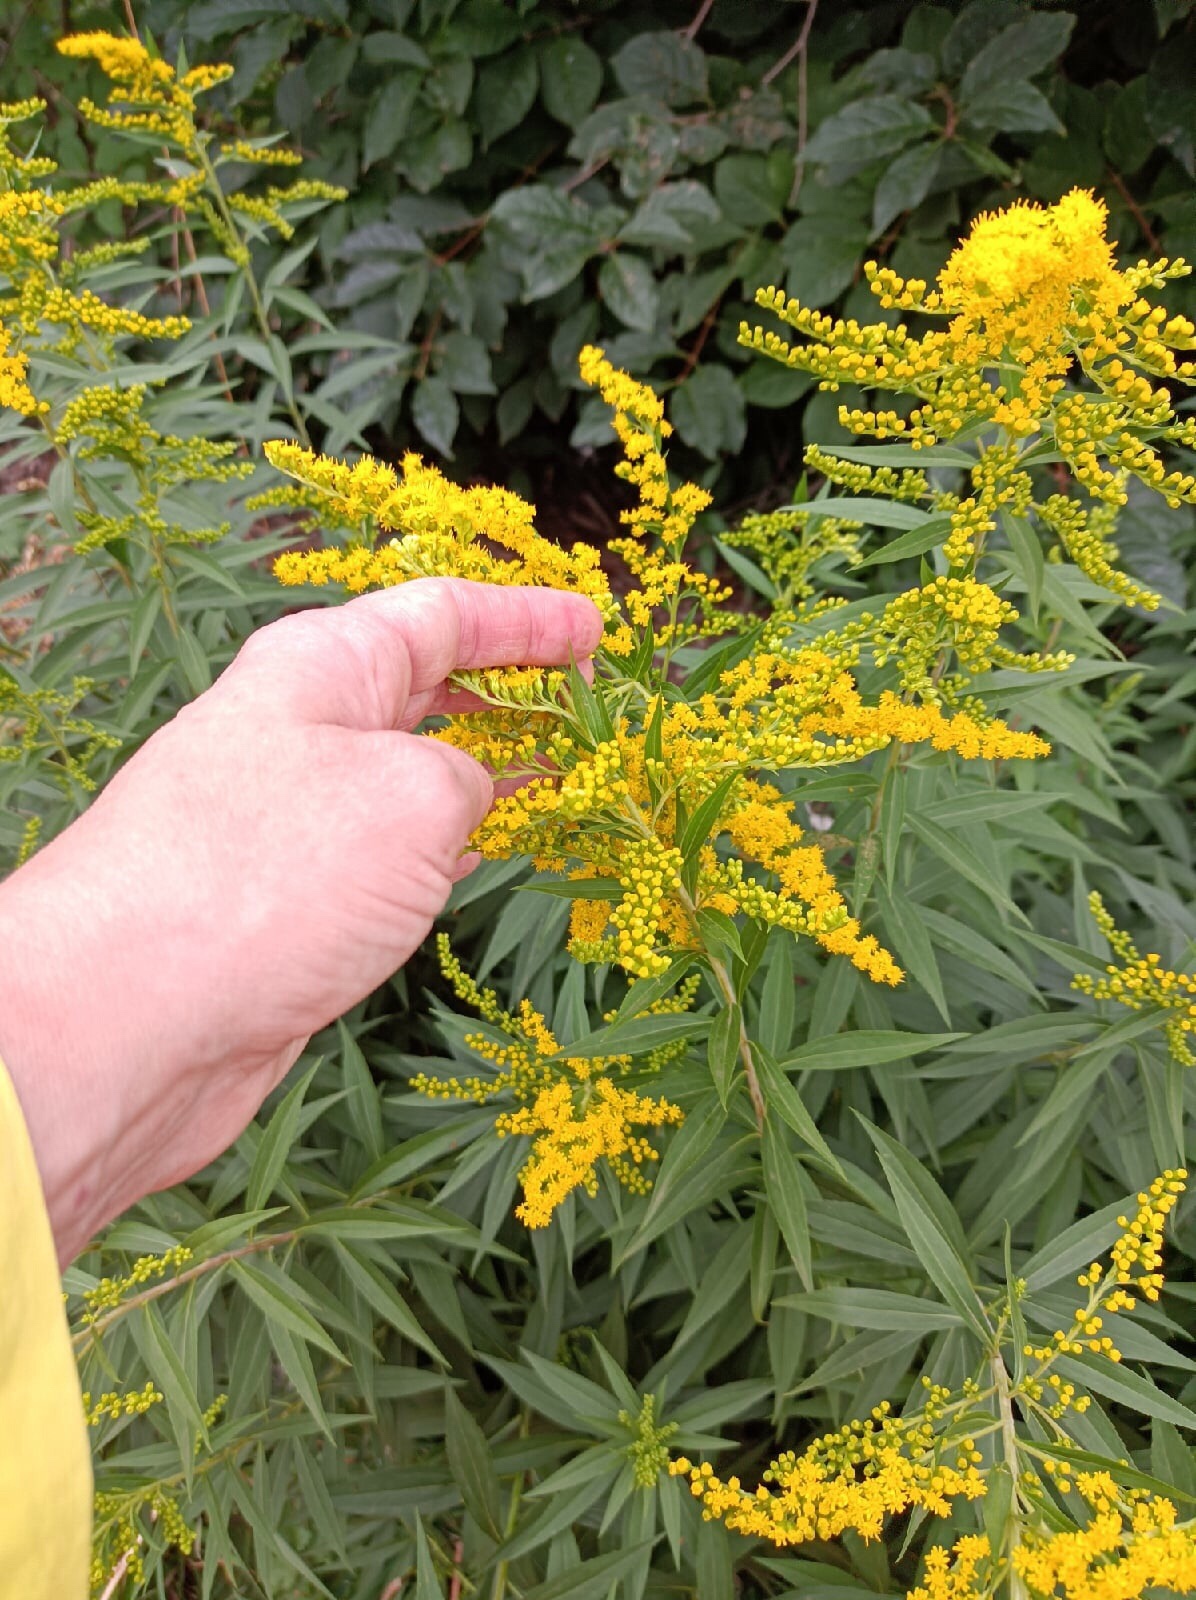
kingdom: Plantae
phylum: Tracheophyta
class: Magnoliopsida
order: Asterales
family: Asteraceae
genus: Solidago
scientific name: Solidago canadensis
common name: Canada goldenrod
